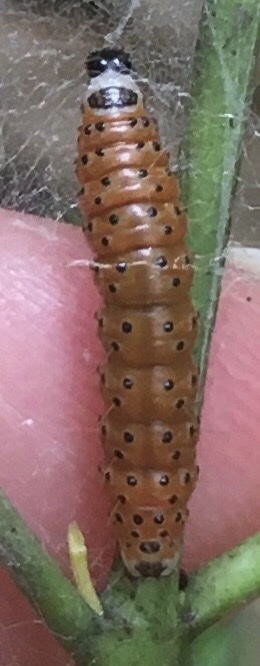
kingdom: Animalia
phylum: Arthropoda
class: Insecta
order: Lepidoptera
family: Crambidae
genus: Saucrobotys
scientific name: Saucrobotys futilalis
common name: Dogbane saucrobotys moth
